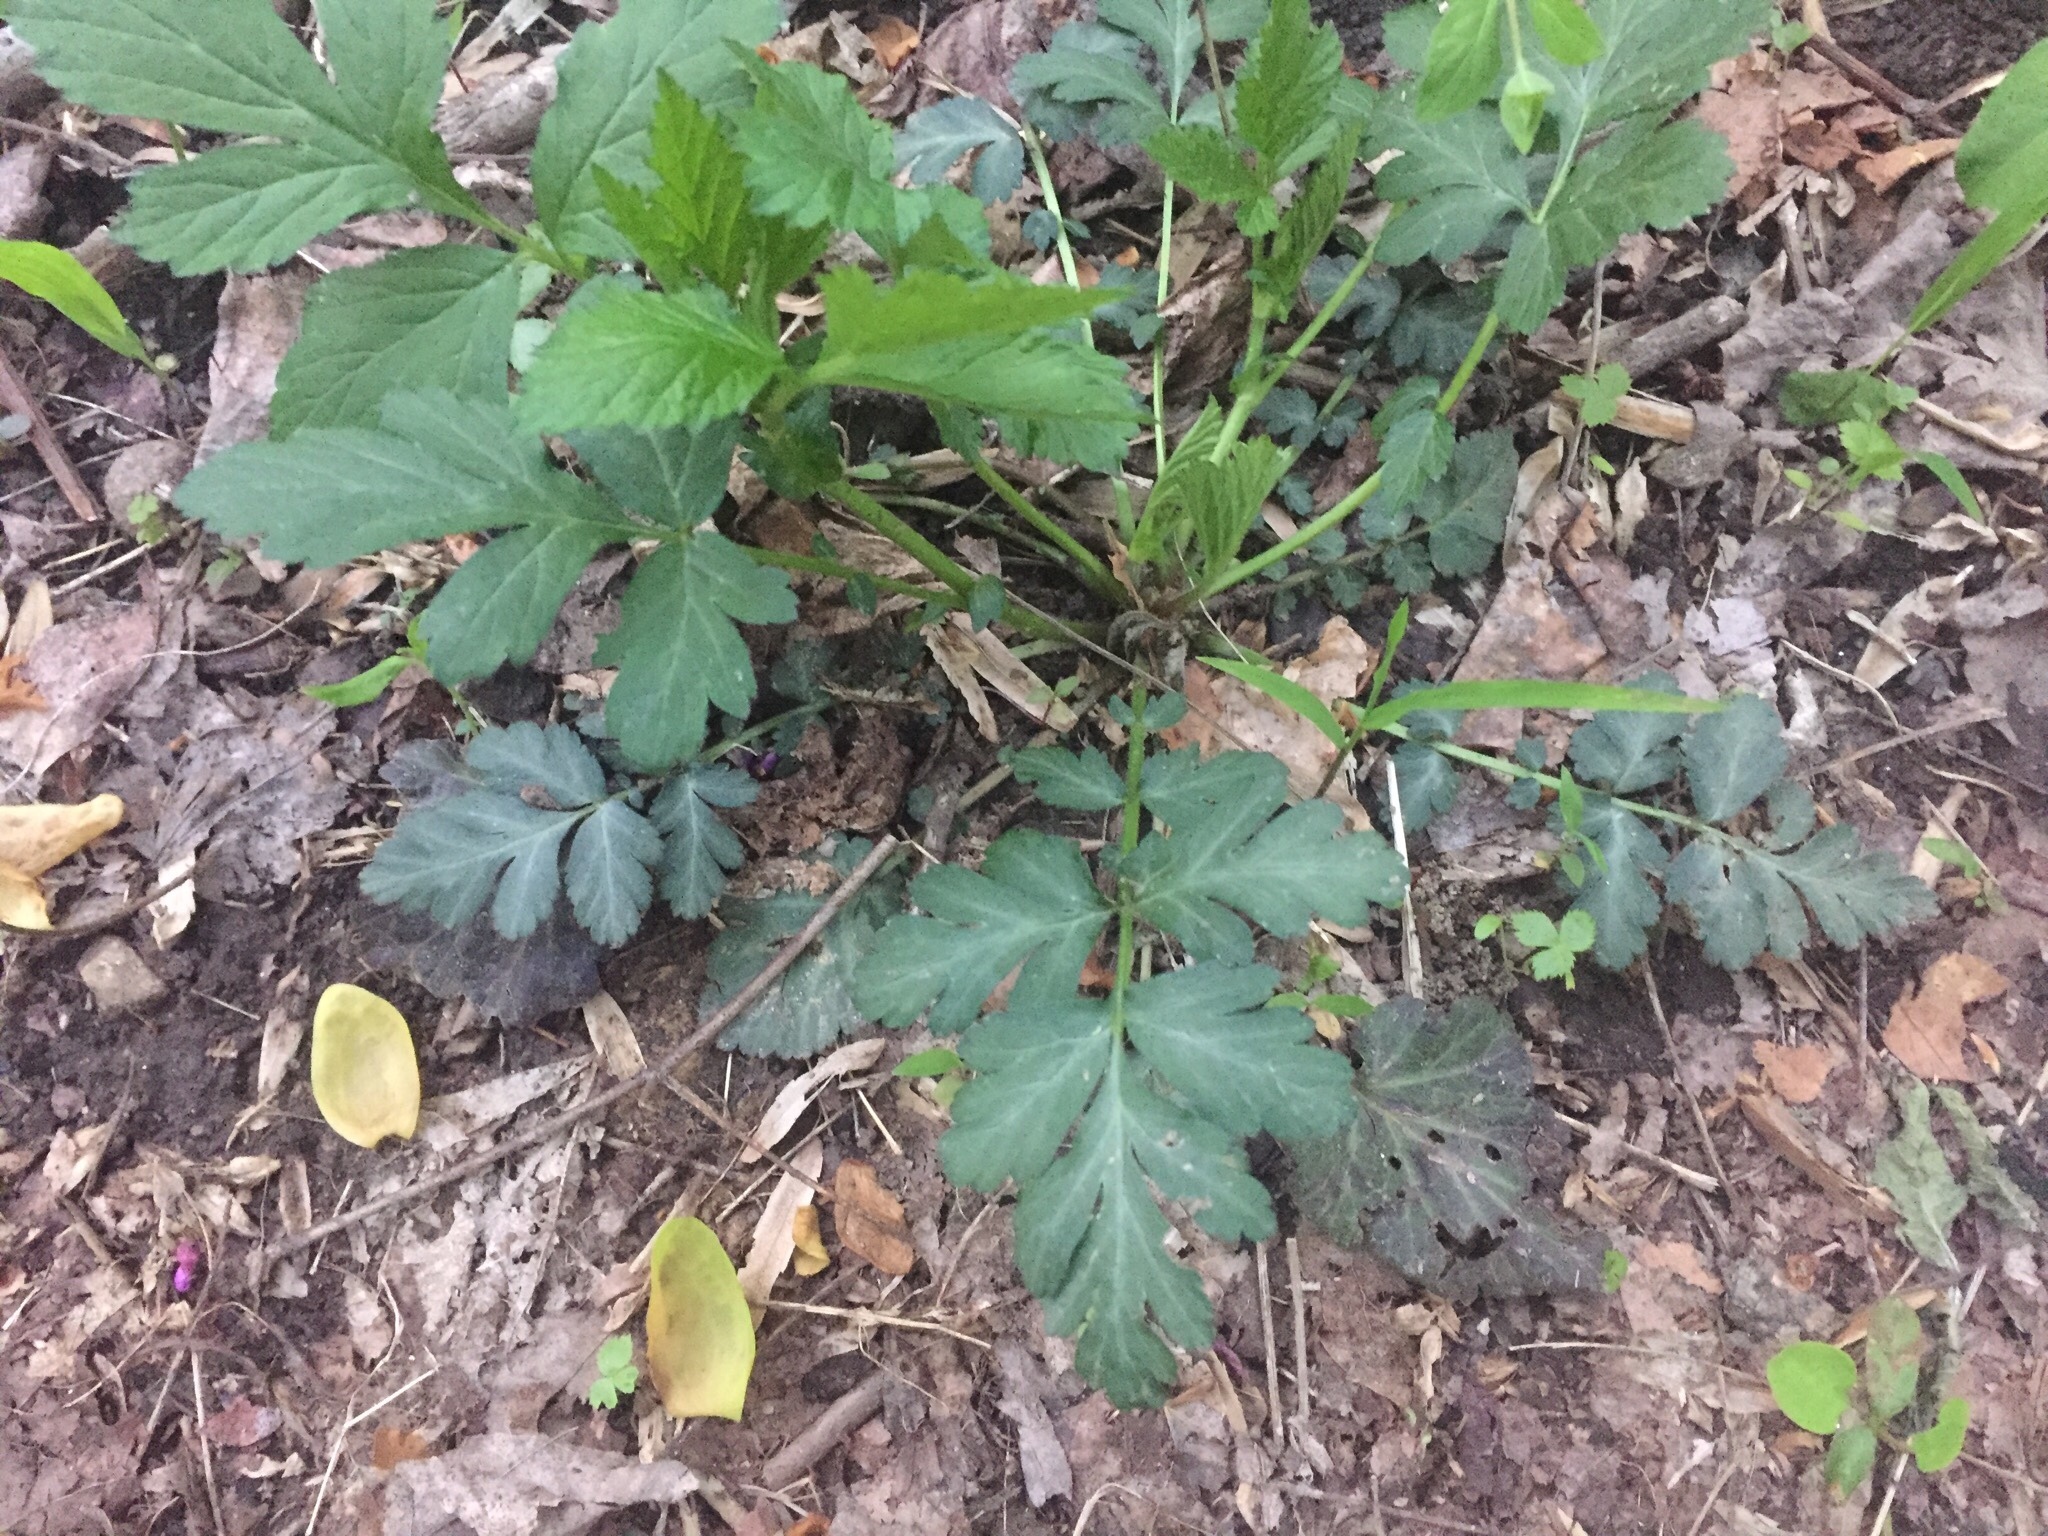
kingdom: Plantae
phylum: Tracheophyta
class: Magnoliopsida
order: Rosales
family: Rosaceae
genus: Geum
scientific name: Geum canadense
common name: White avens
